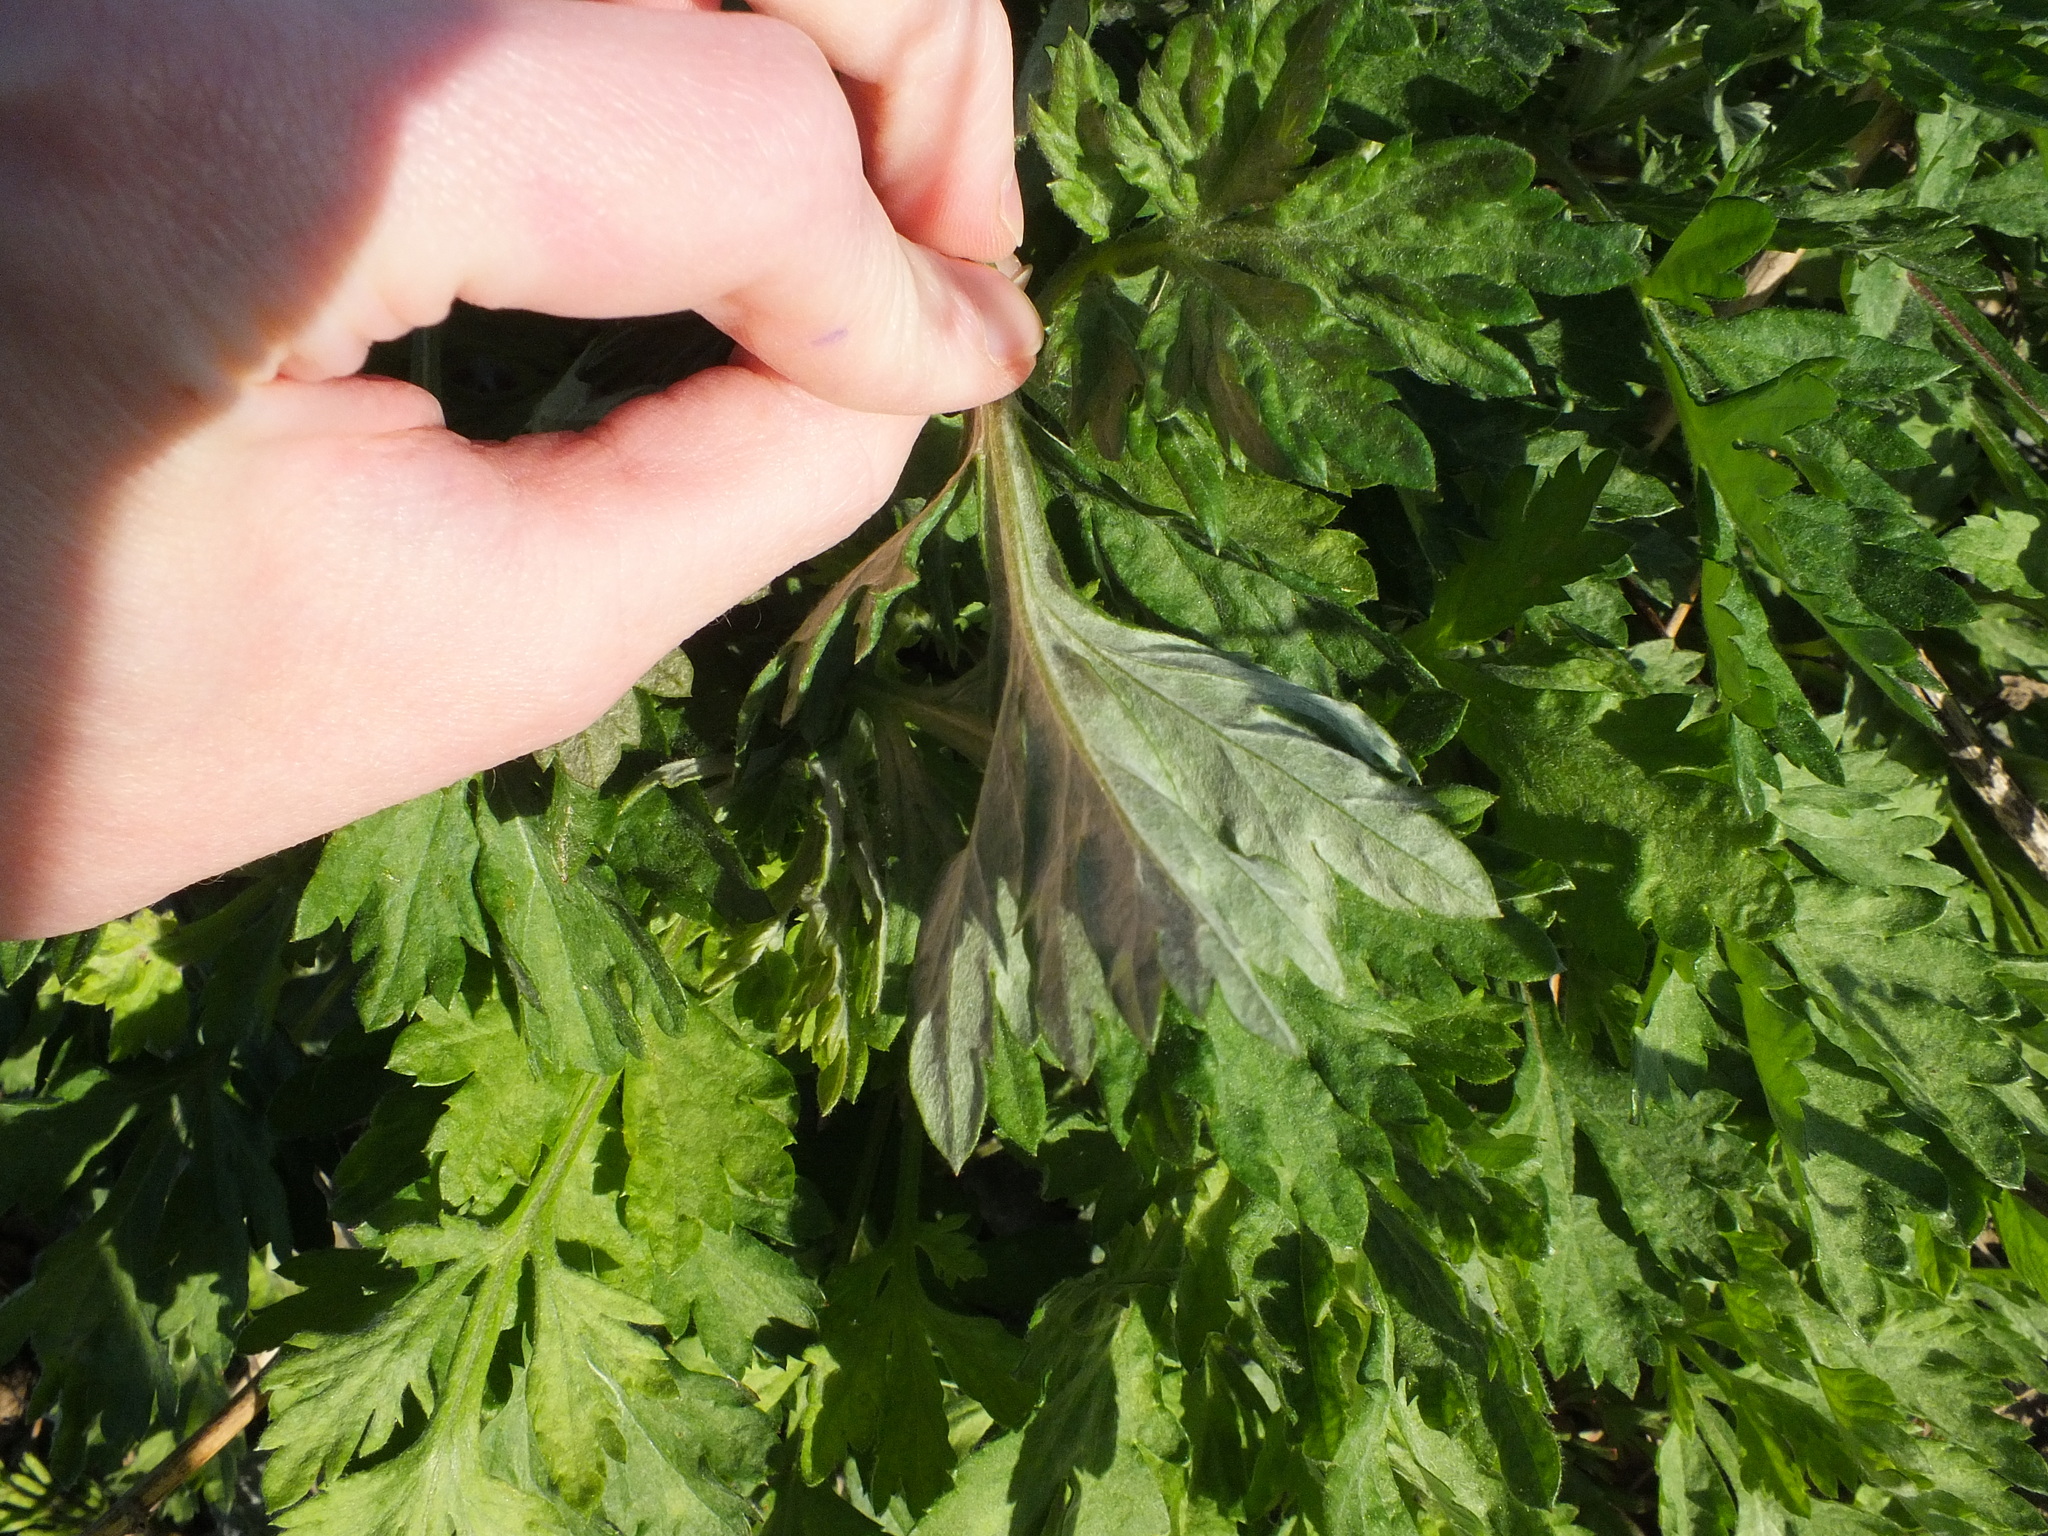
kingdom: Plantae
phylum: Tracheophyta
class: Magnoliopsida
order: Asterales
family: Asteraceae
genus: Artemisia
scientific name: Artemisia vulgaris
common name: Mugwort
